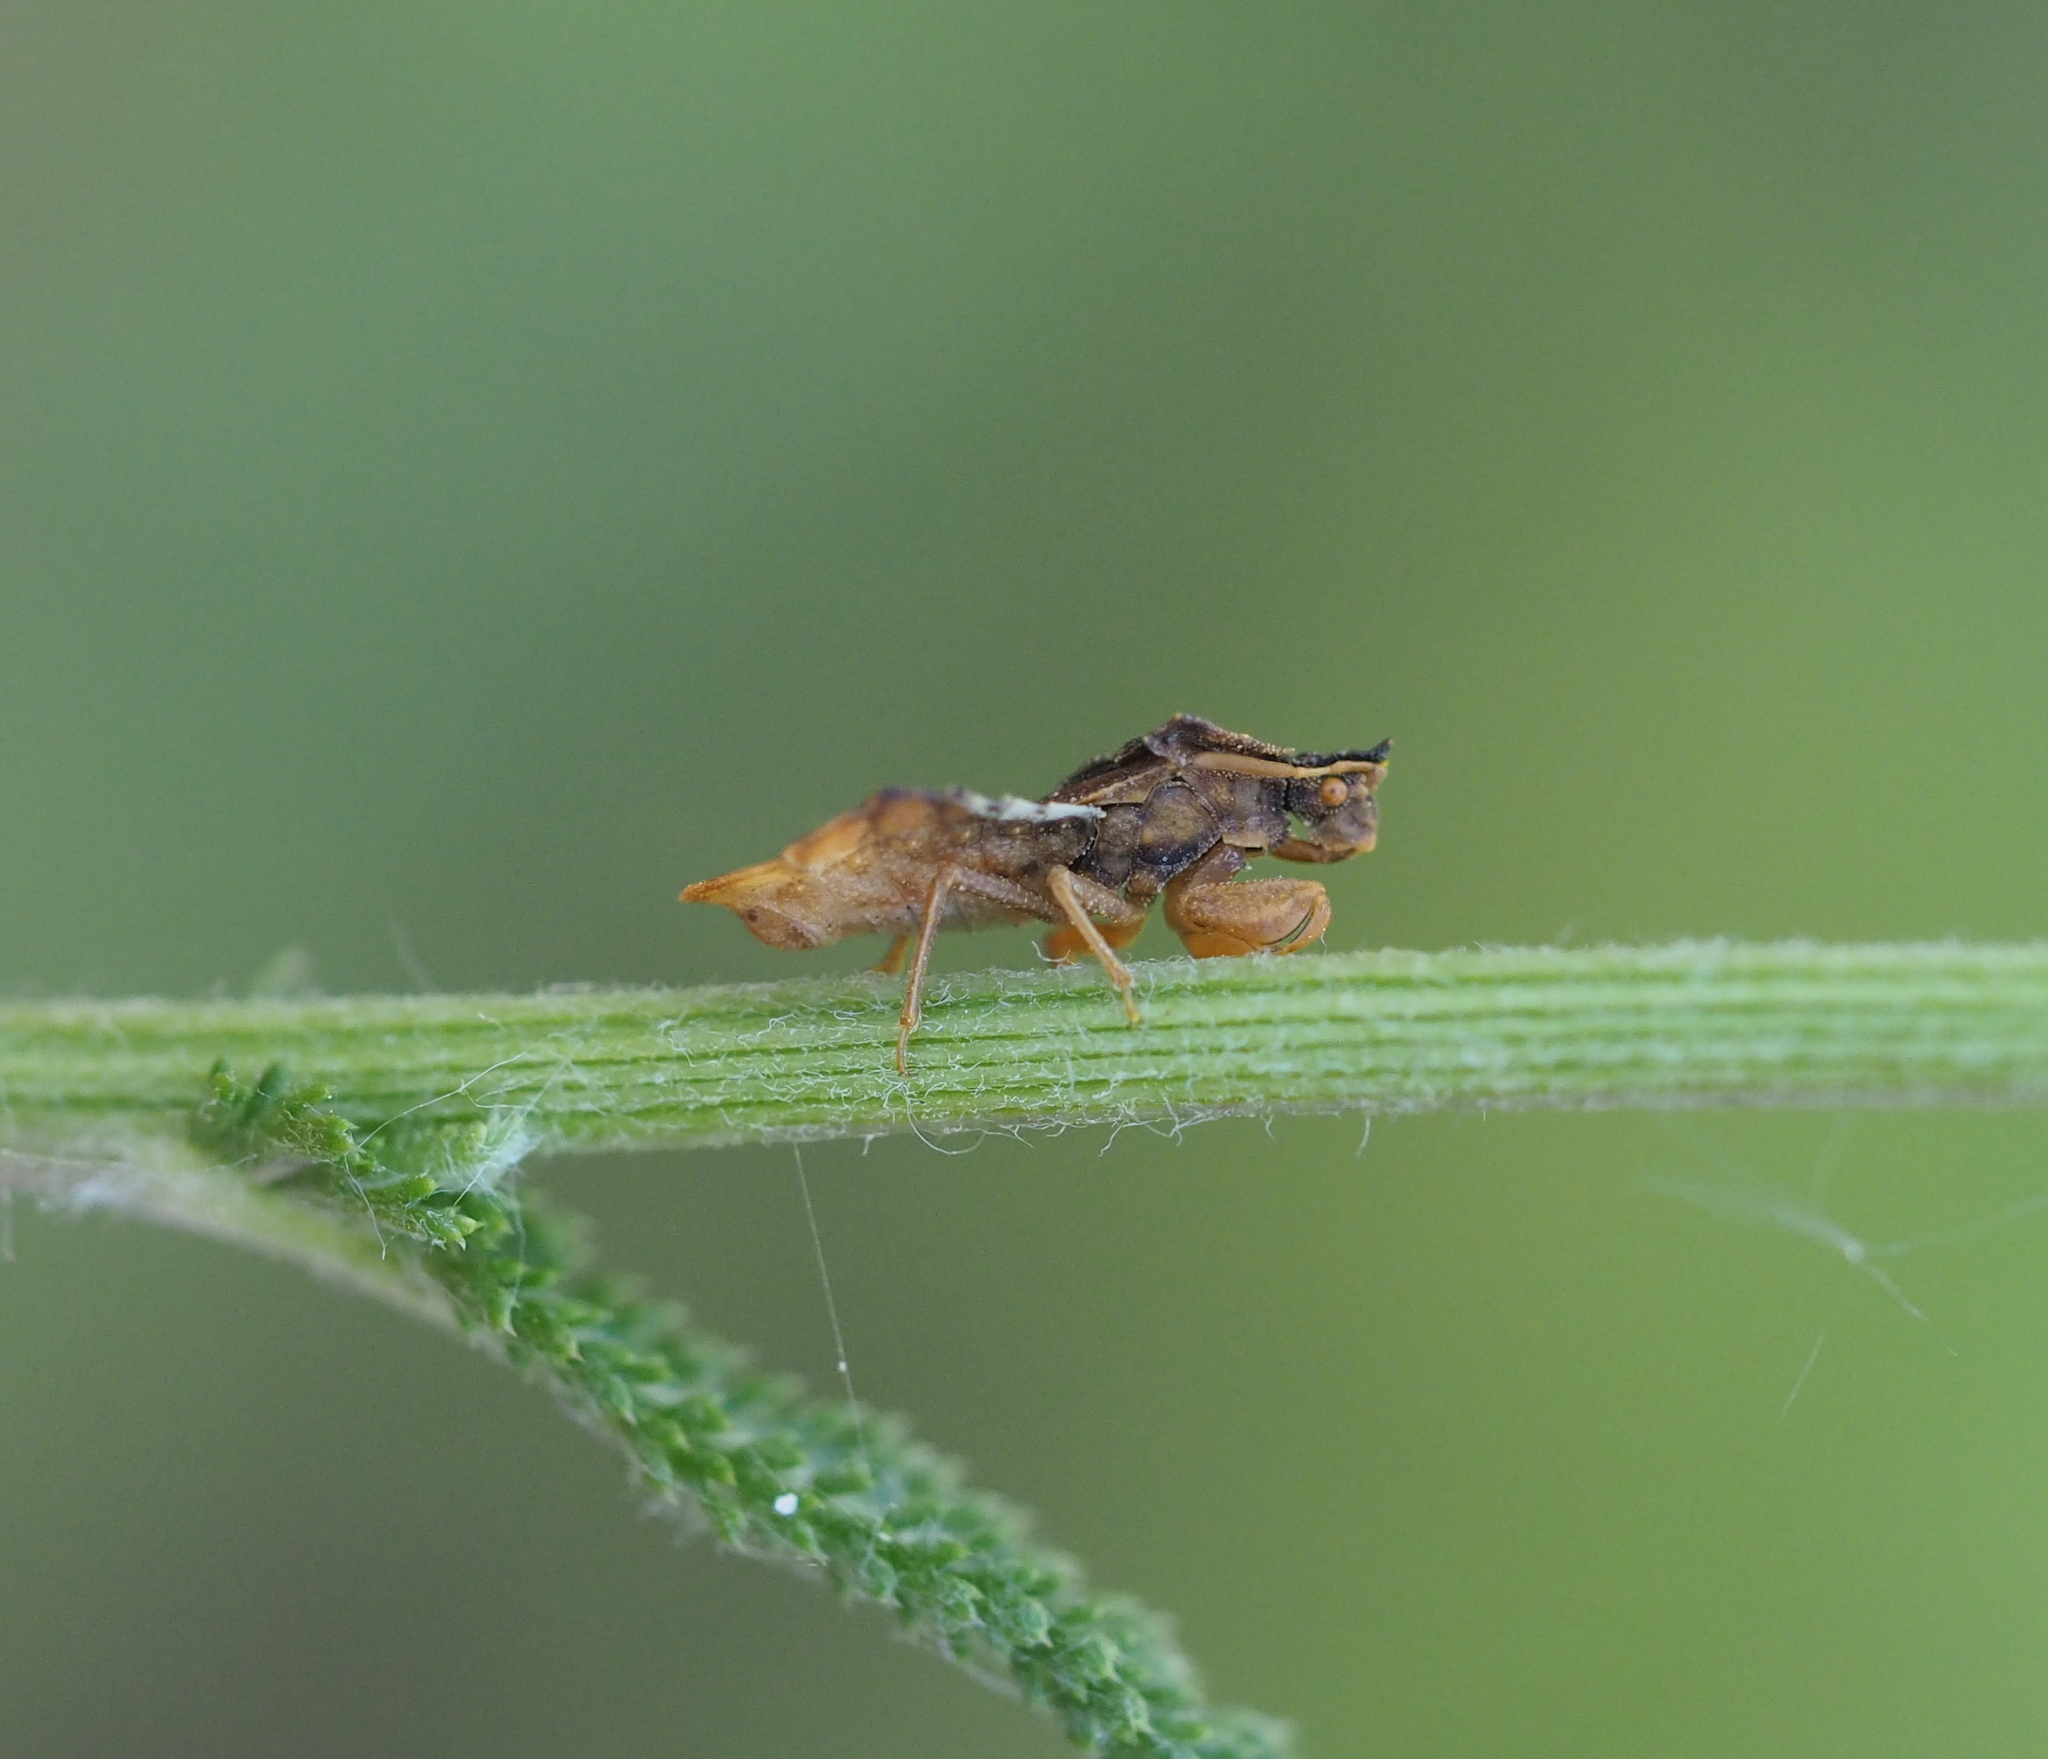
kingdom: Animalia
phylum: Arthropoda
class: Insecta
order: Hemiptera
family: Reduviidae
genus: Phymata
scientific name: Phymata crassipes
